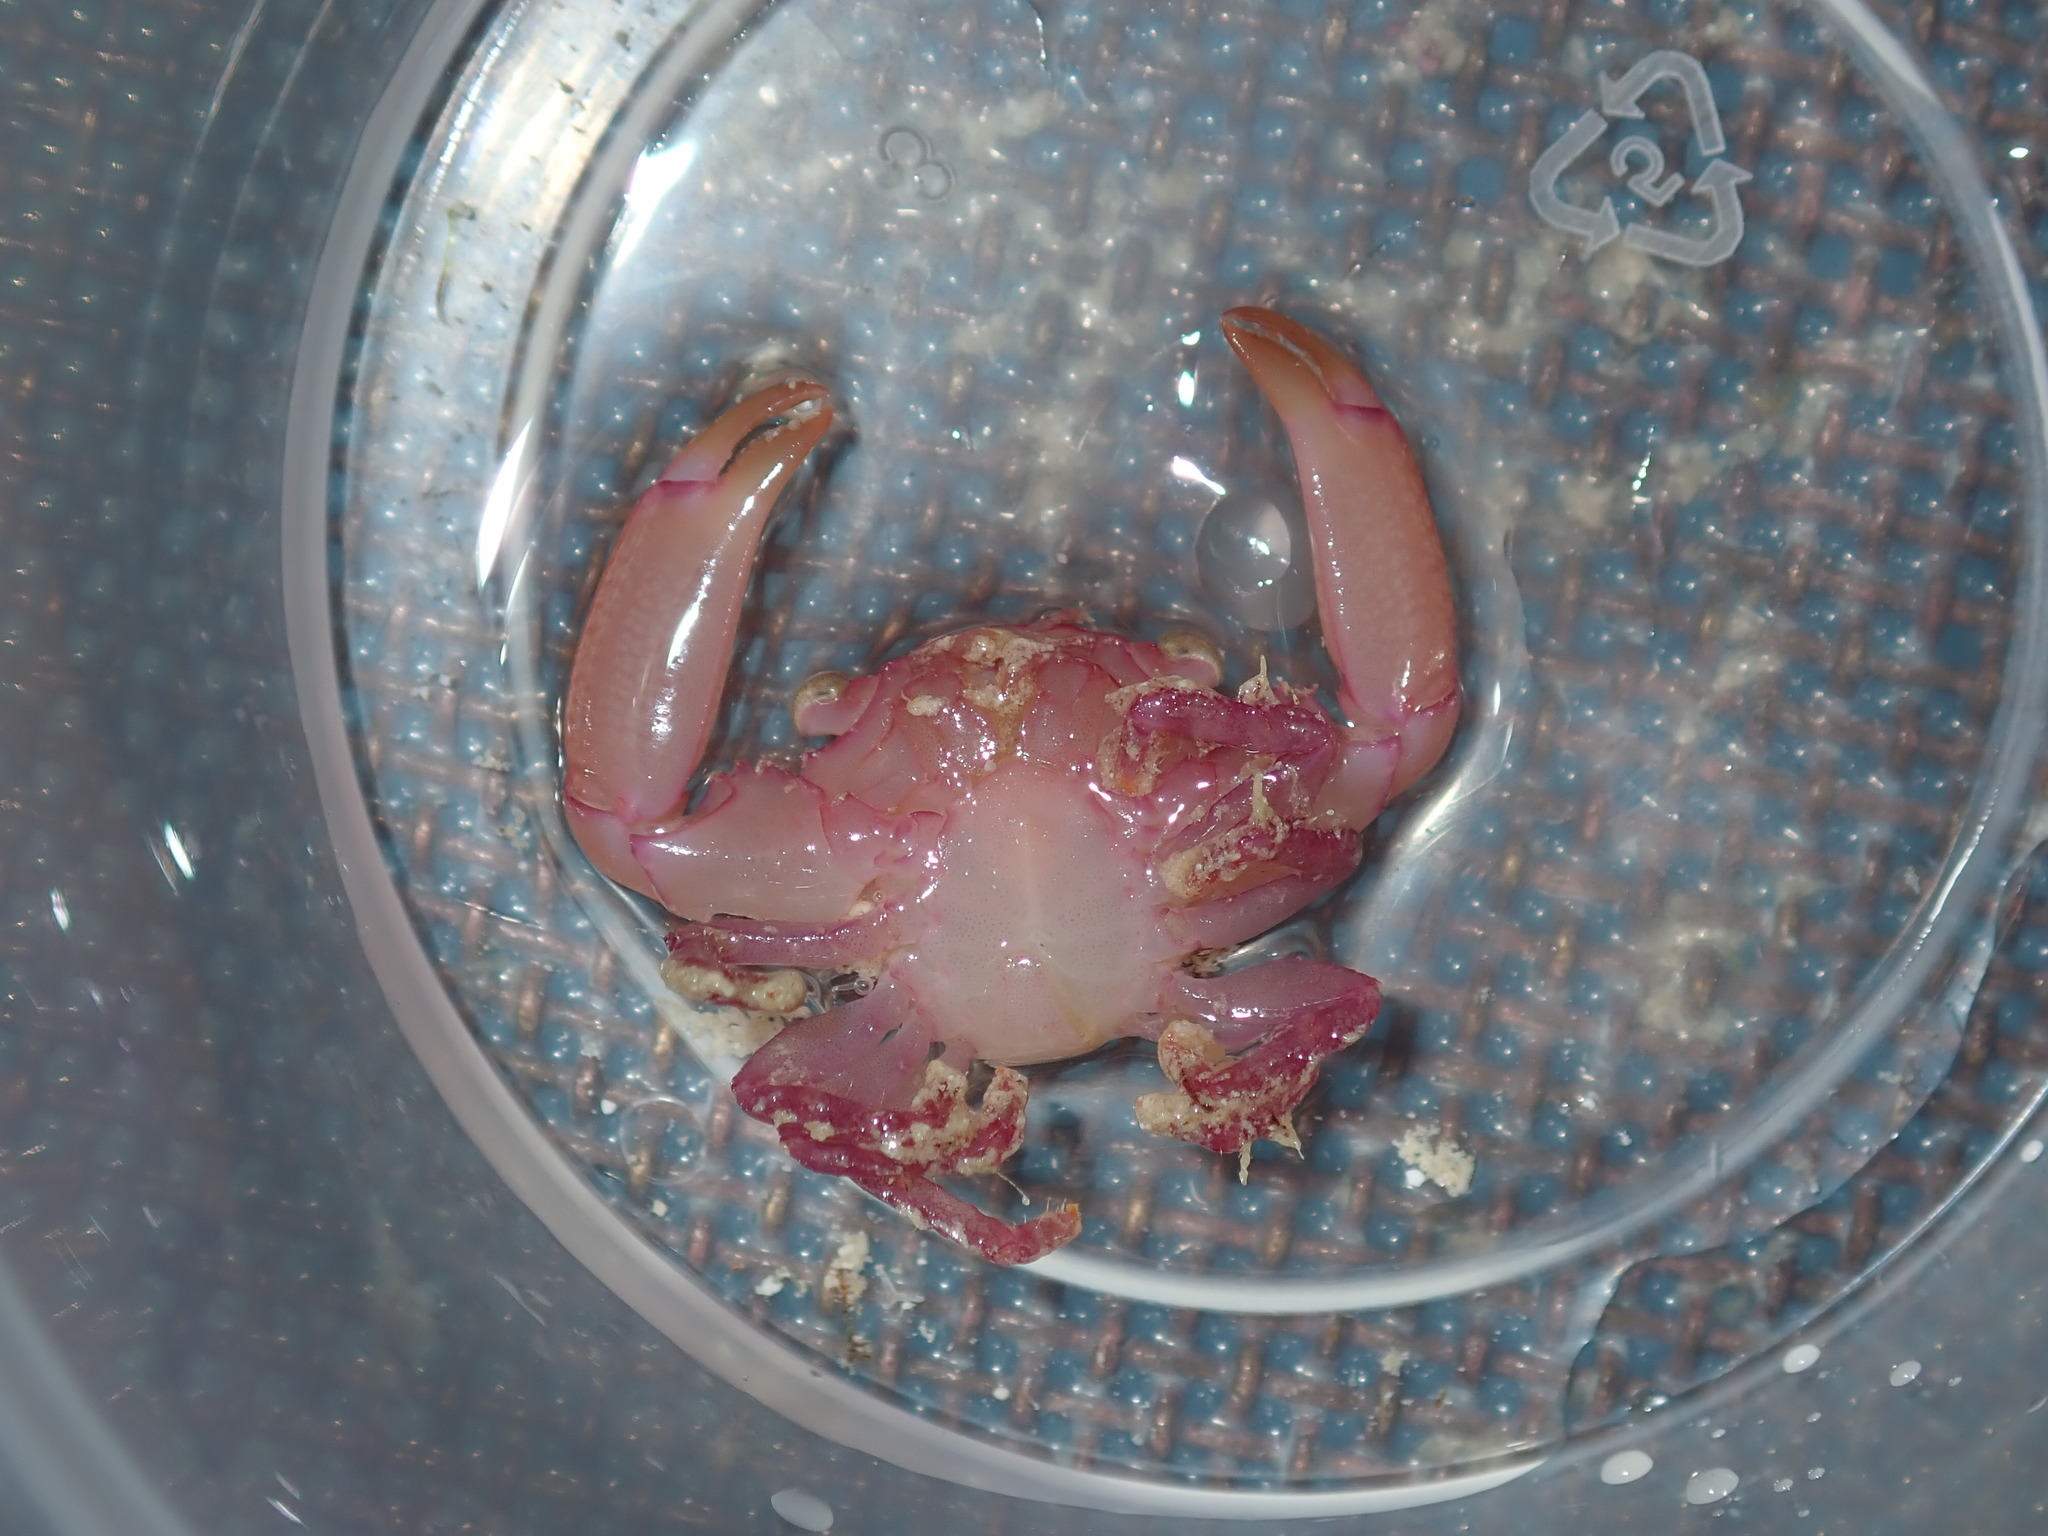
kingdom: Animalia
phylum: Arthropoda
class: Malacostraca
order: Decapoda
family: Trapeziidae
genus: Trapezia
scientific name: Trapezia serenei
